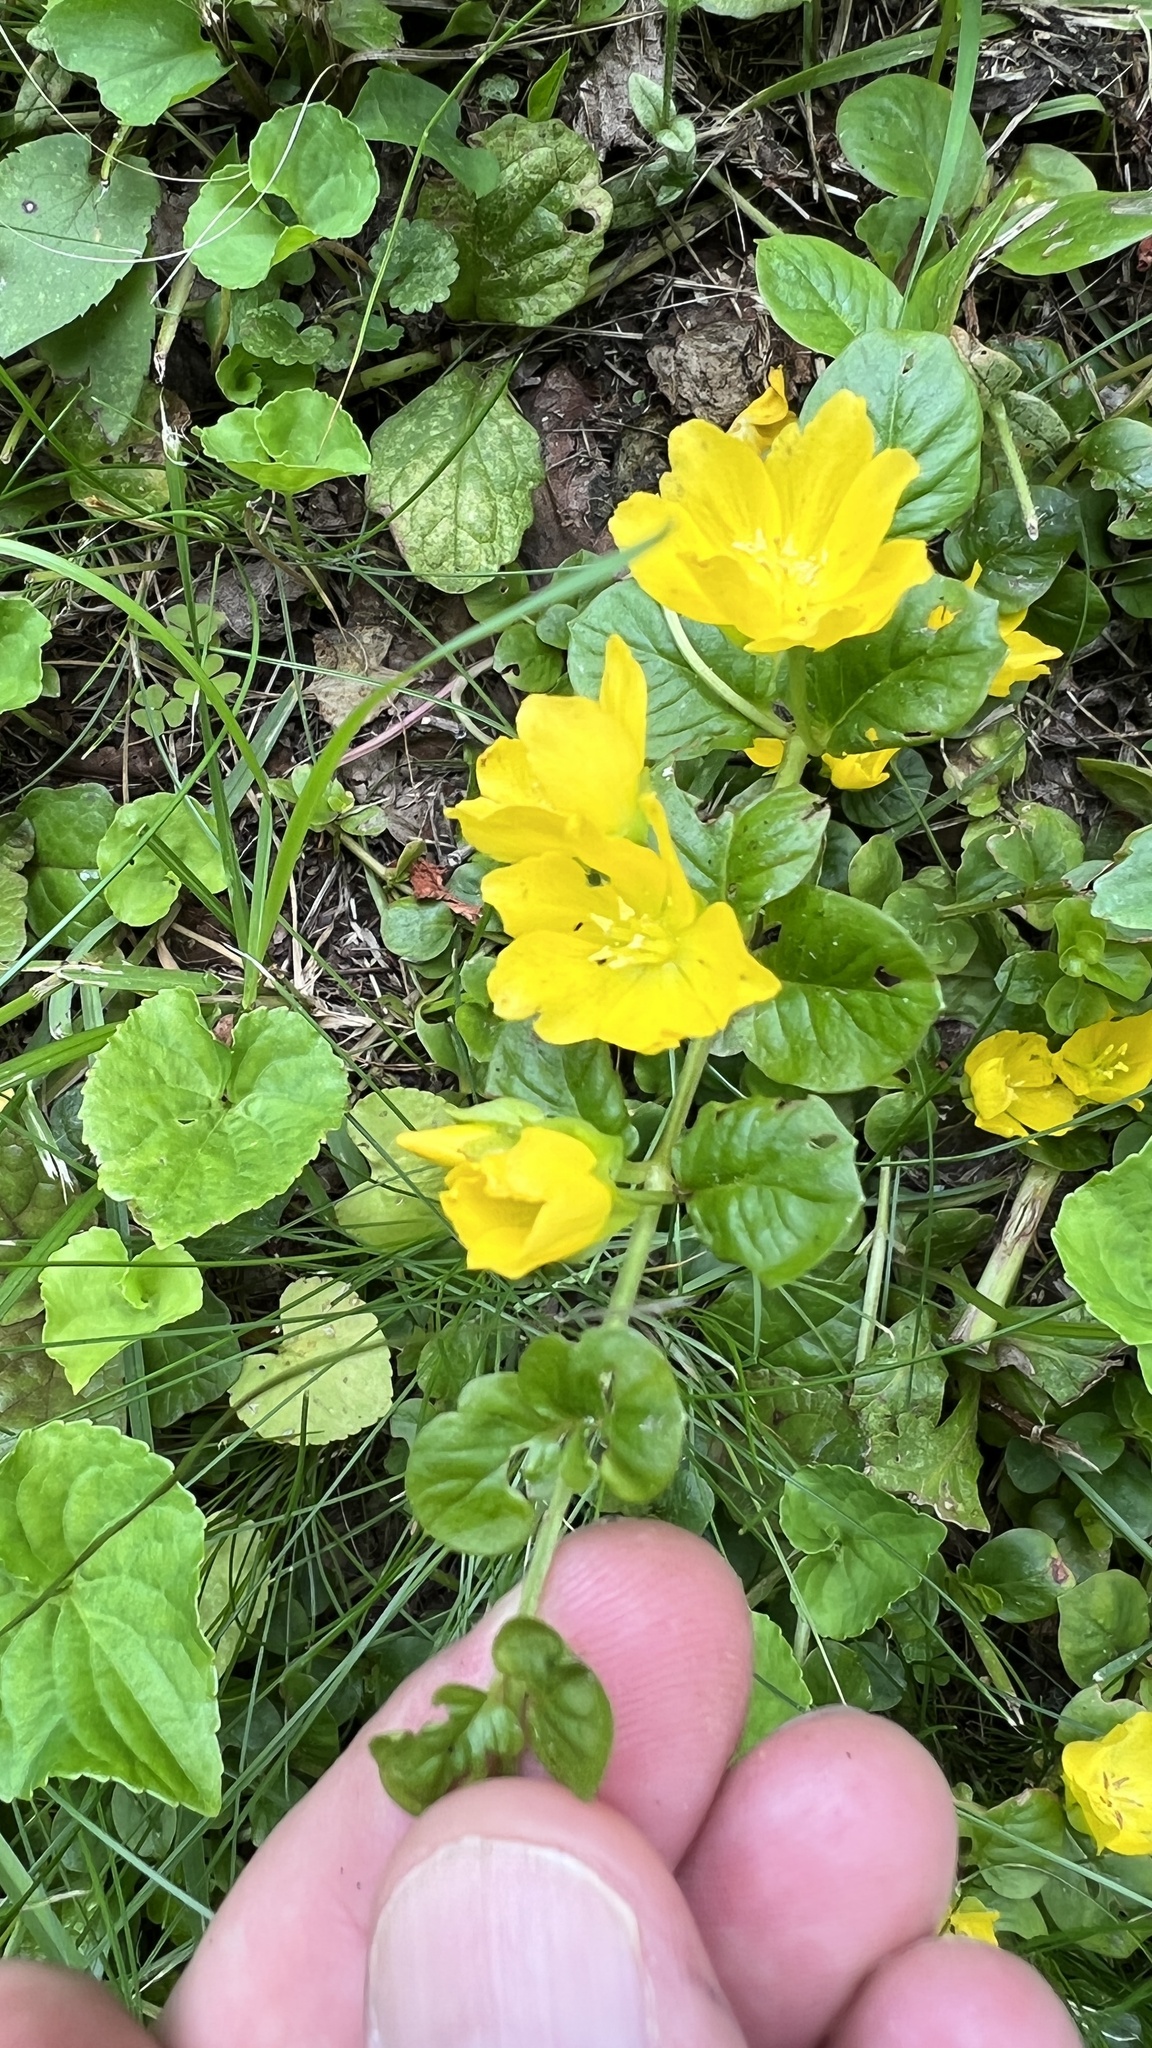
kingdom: Plantae
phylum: Tracheophyta
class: Magnoliopsida
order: Ericales
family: Primulaceae
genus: Lysimachia
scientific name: Lysimachia nummularia
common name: Moneywort
